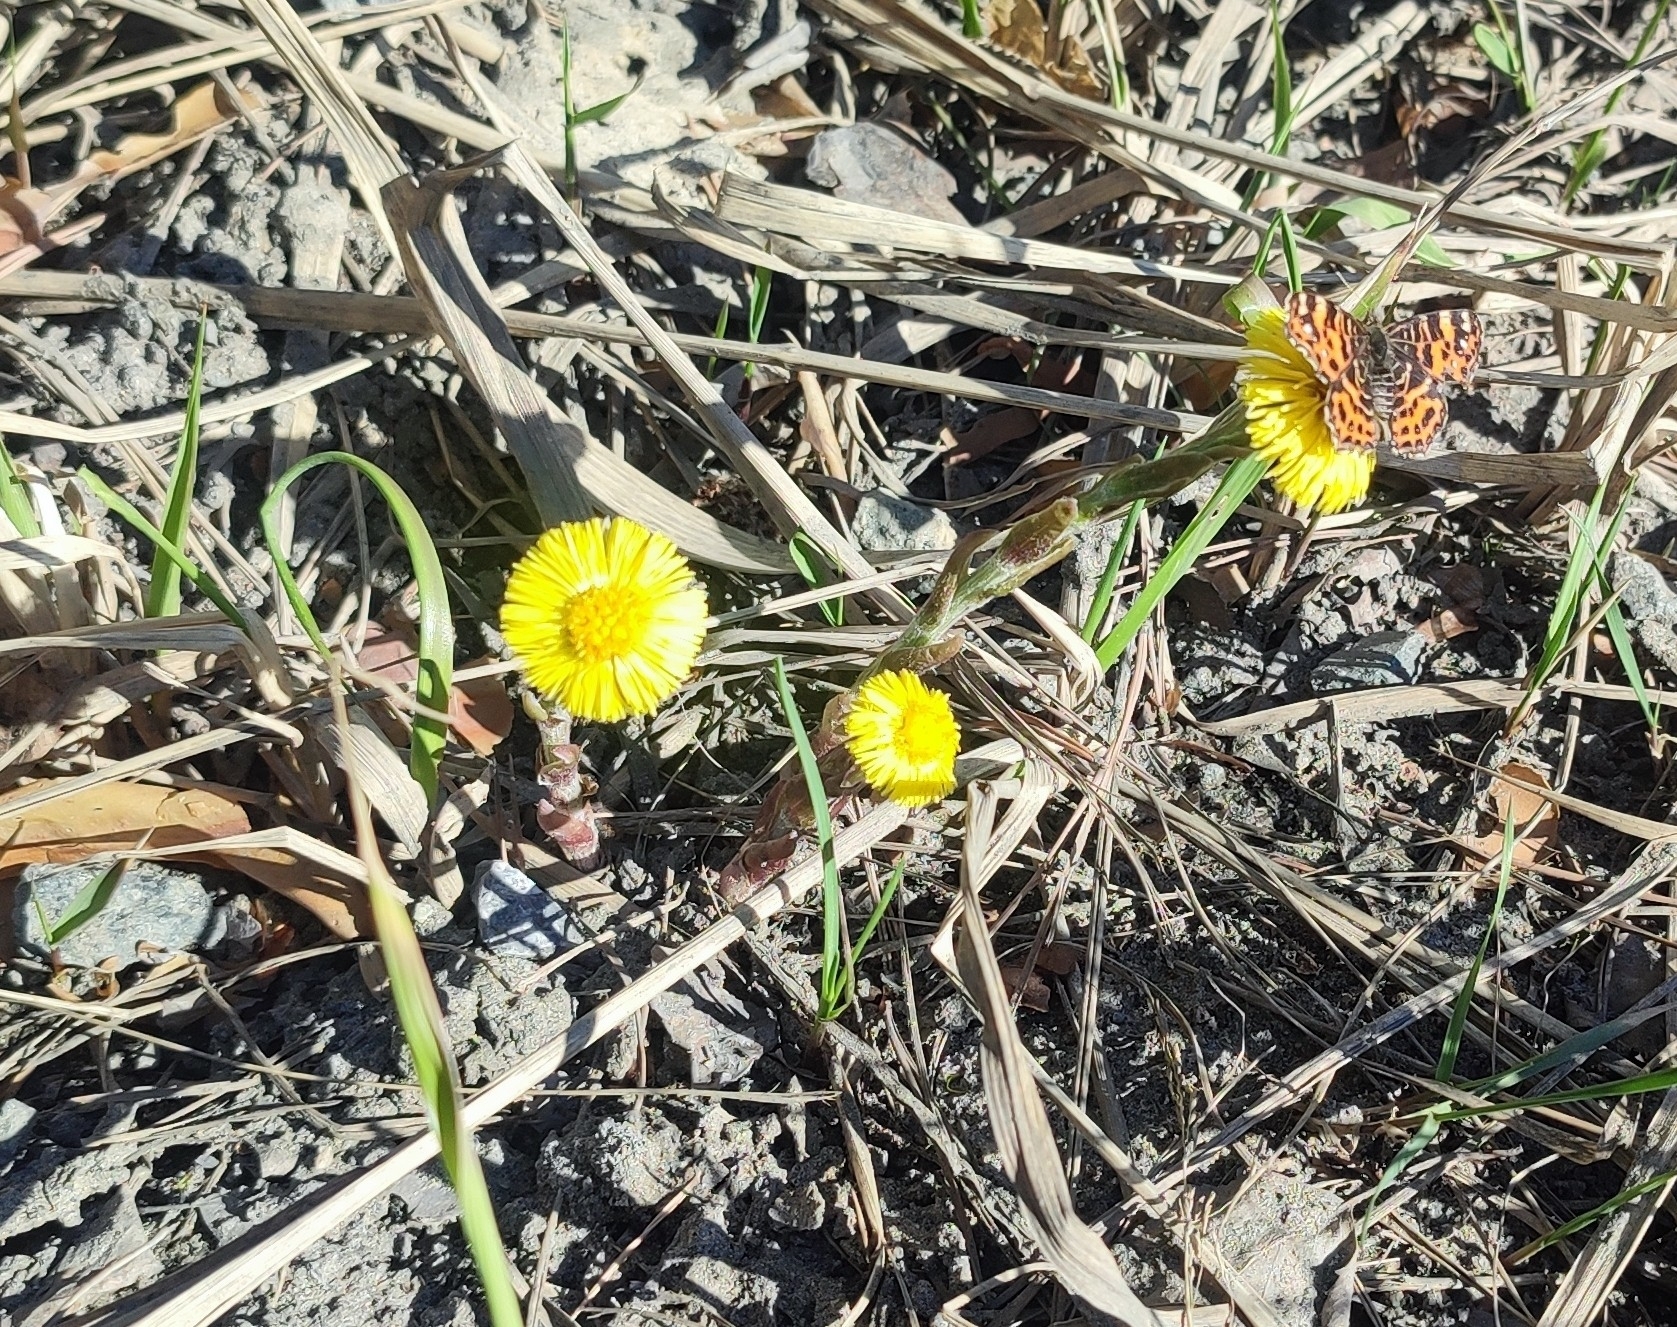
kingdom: Plantae
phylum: Tracheophyta
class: Magnoliopsida
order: Asterales
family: Asteraceae
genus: Tussilago
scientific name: Tussilago farfara
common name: Coltsfoot
